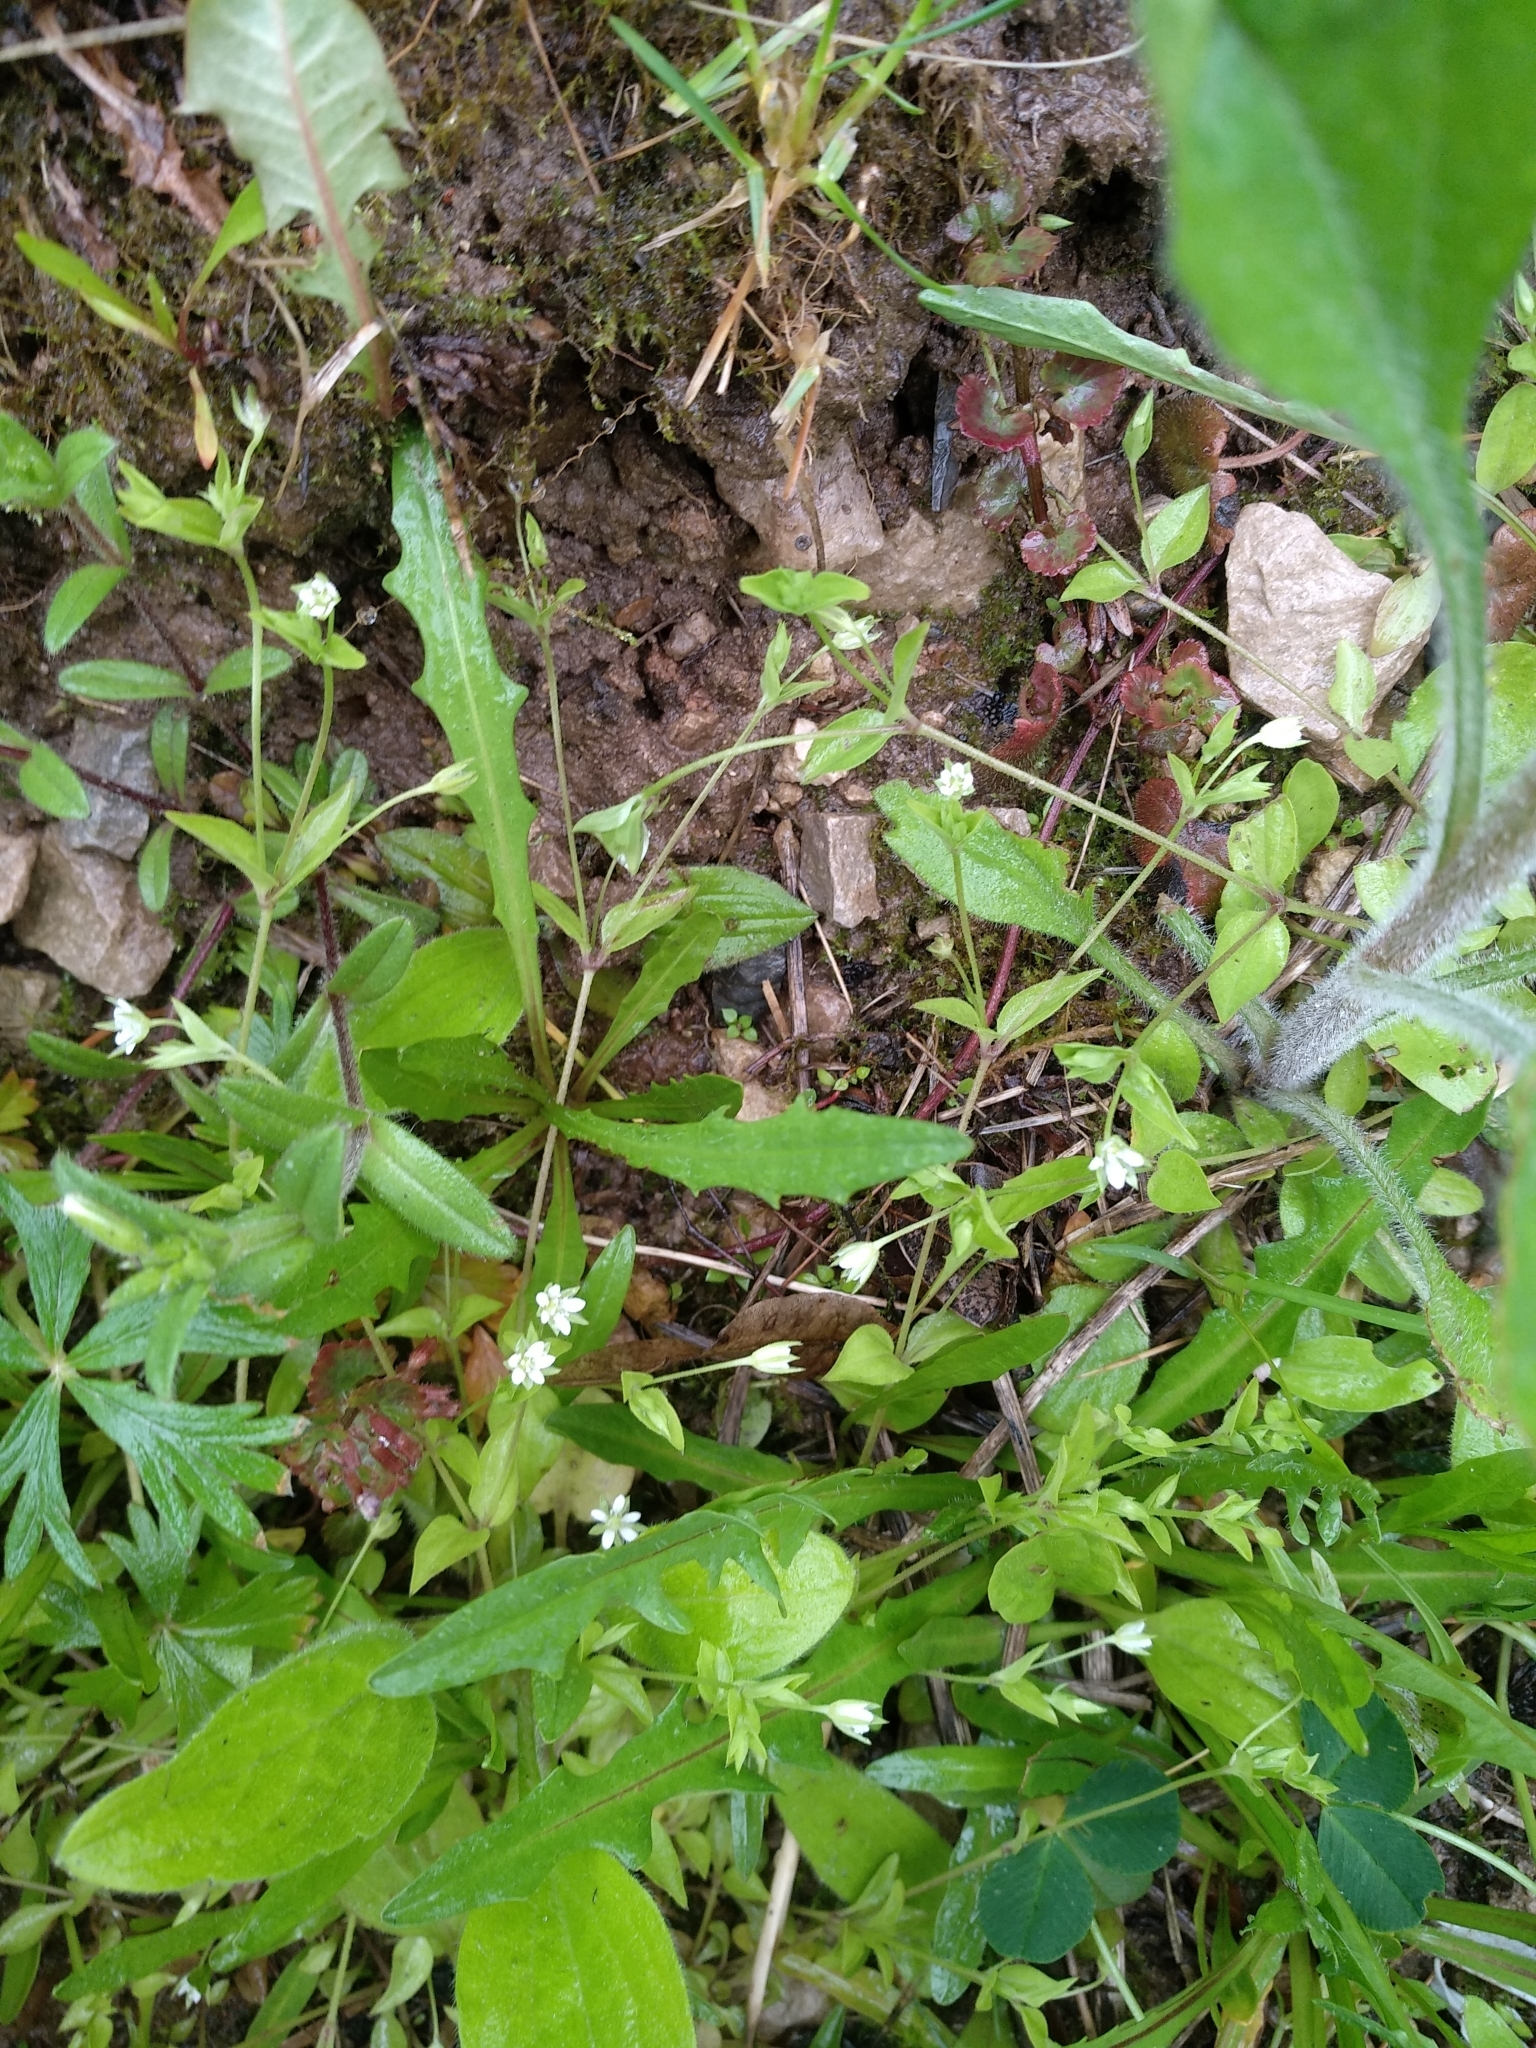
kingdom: Plantae
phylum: Tracheophyta
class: Magnoliopsida
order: Caryophyllales
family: Caryophyllaceae
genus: Moehringia
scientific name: Moehringia trinervia
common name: Three-nerved sandwort
